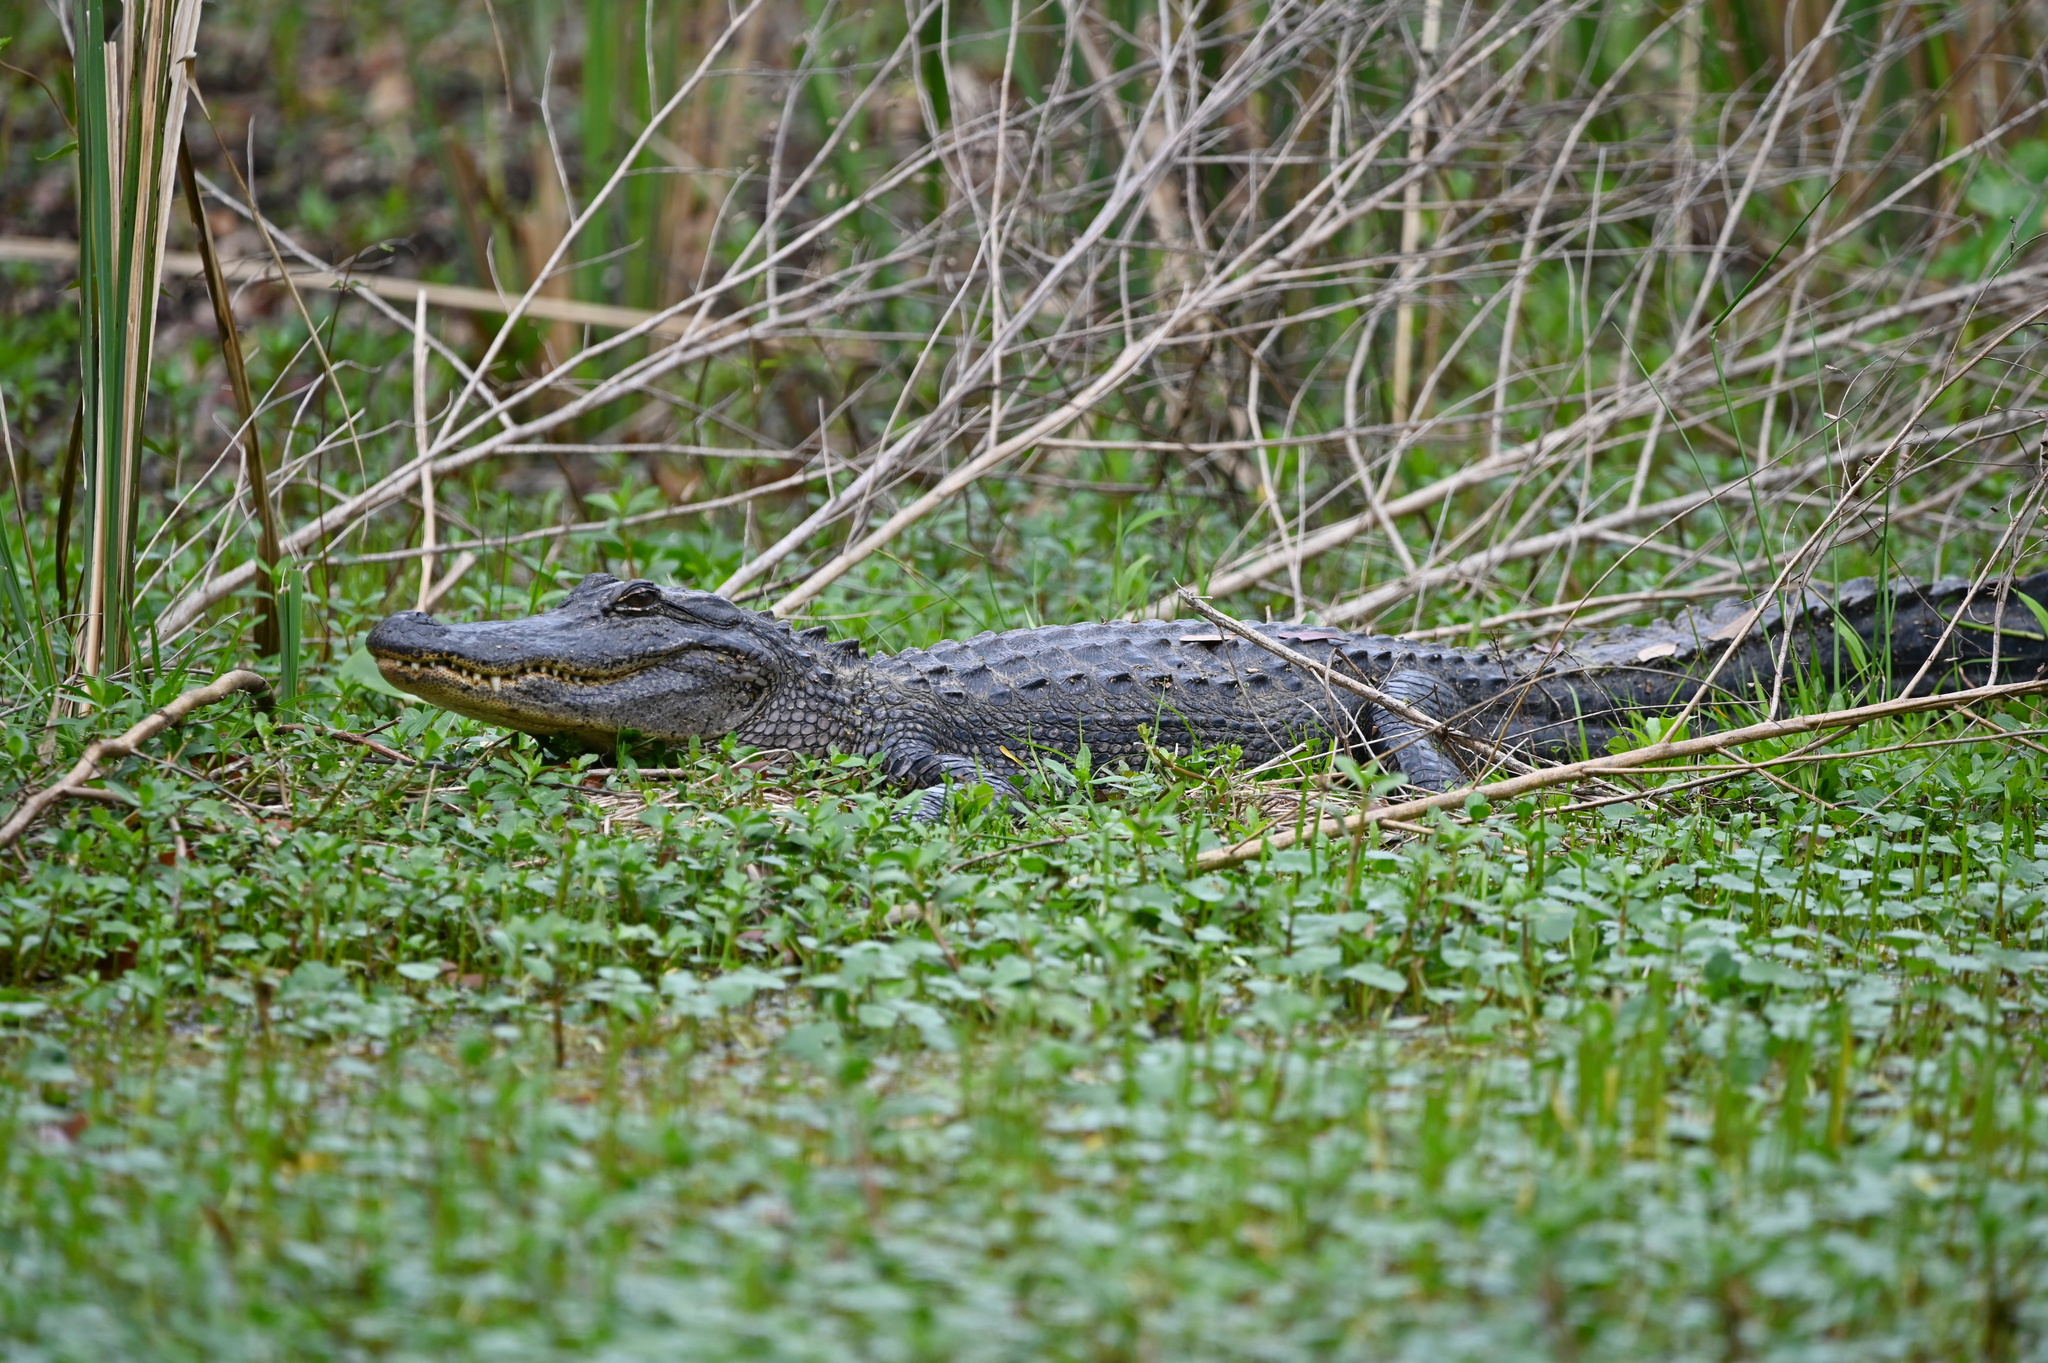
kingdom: Animalia
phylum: Chordata
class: Crocodylia
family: Alligatoridae
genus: Alligator
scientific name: Alligator mississippiensis
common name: American alligator
